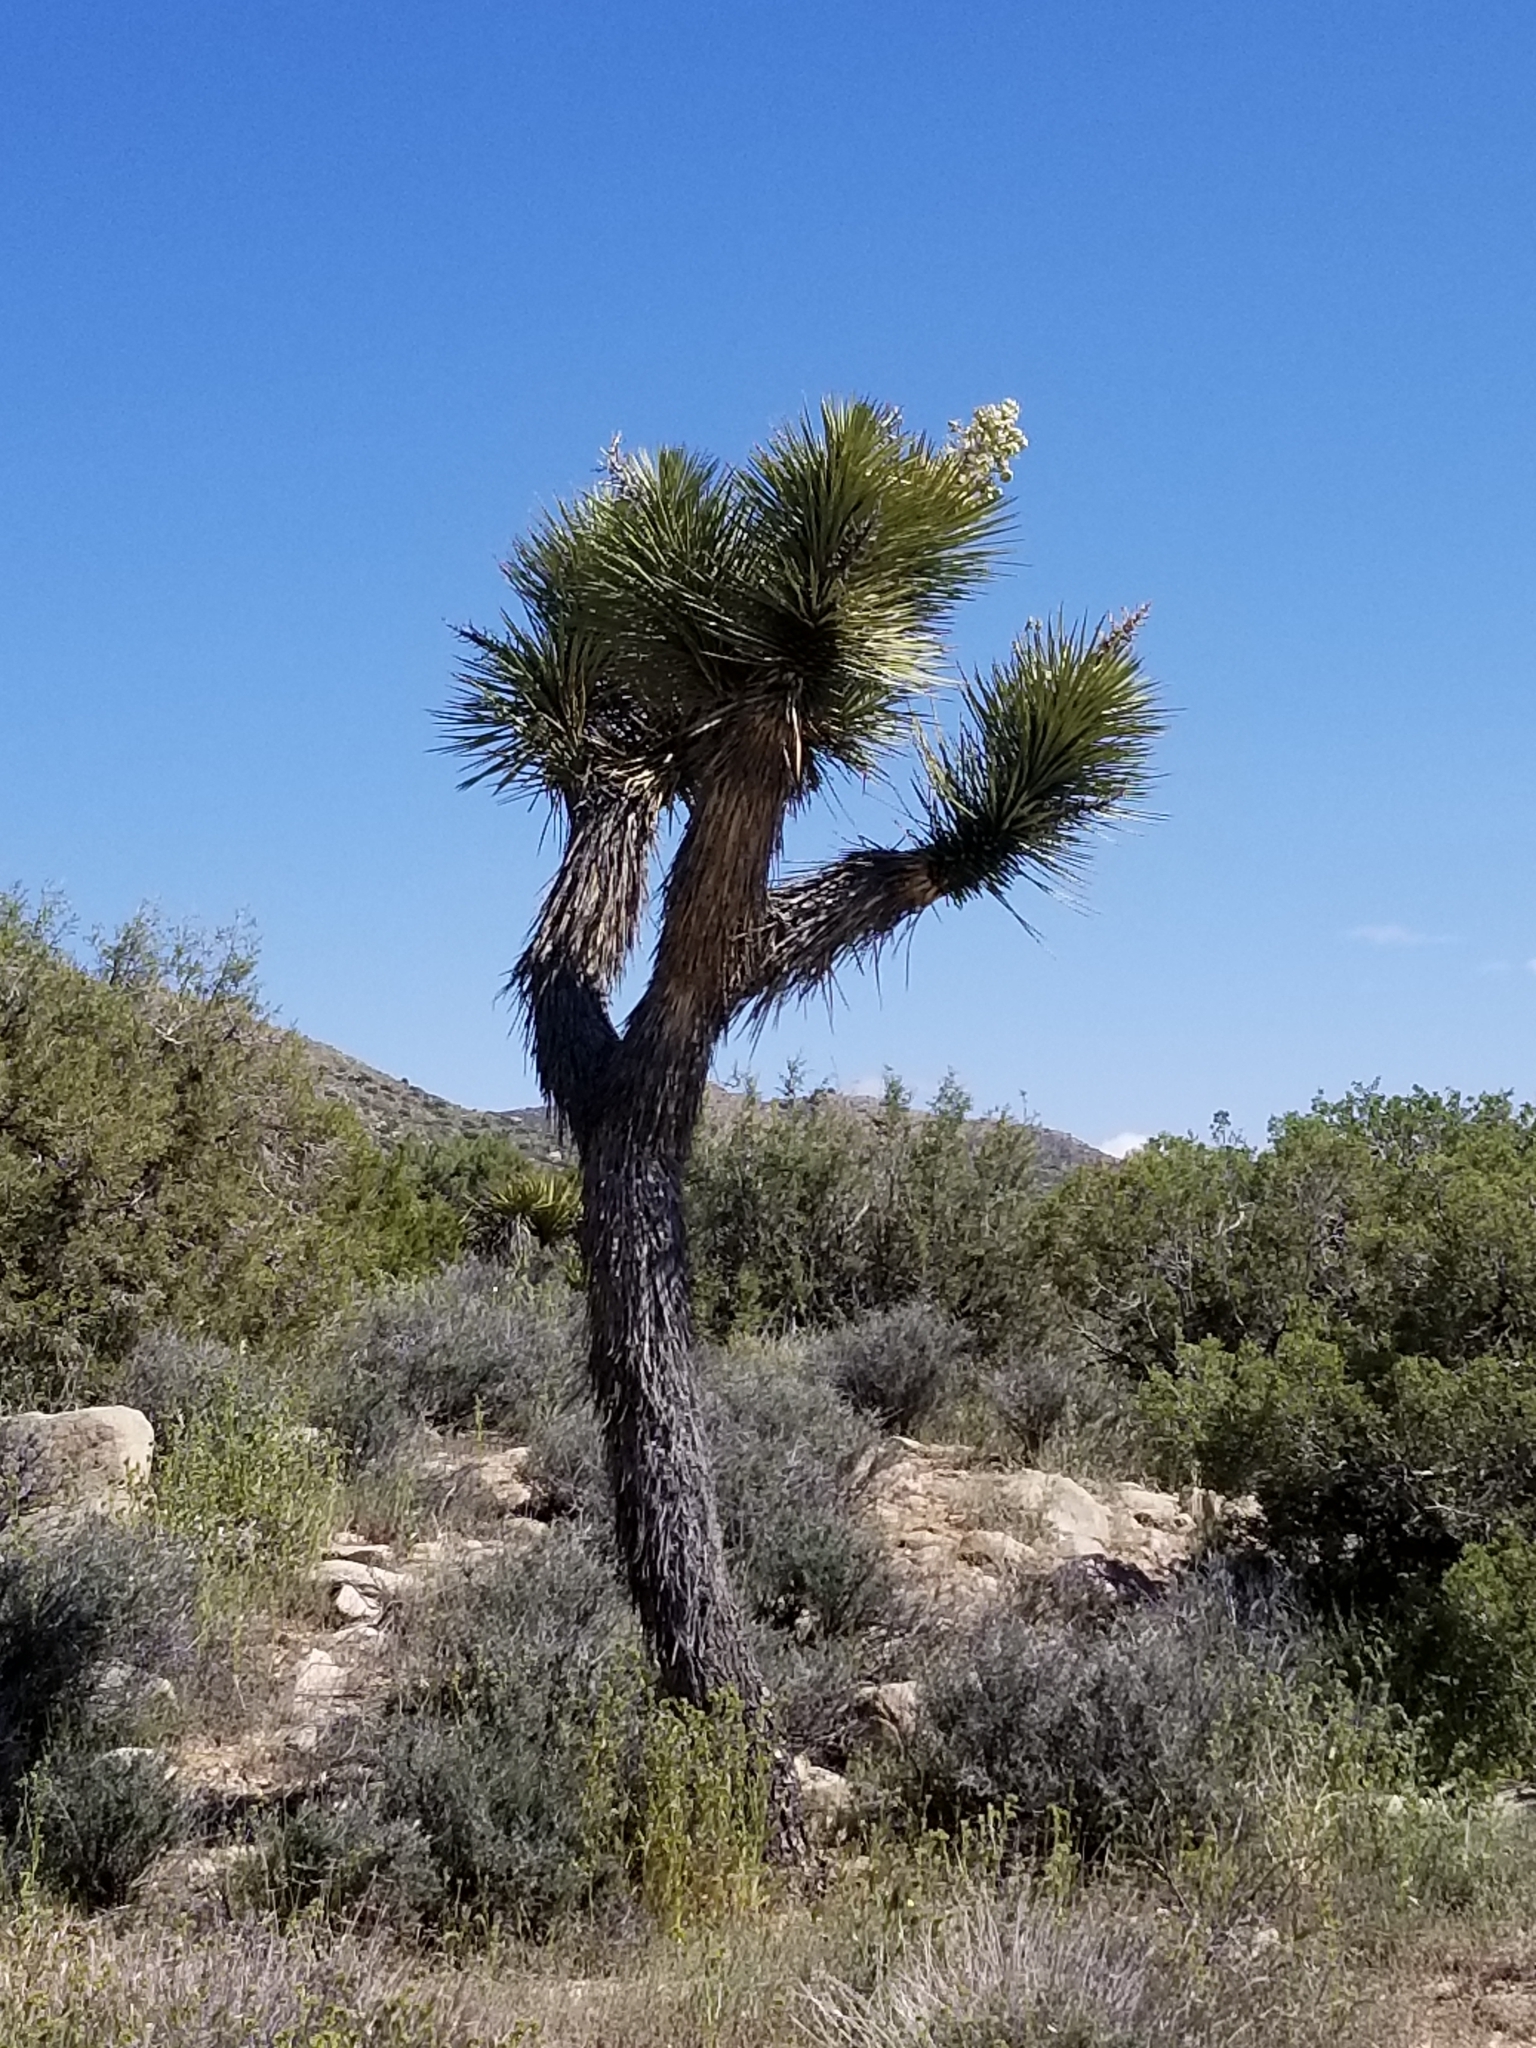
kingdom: Plantae
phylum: Tracheophyta
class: Liliopsida
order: Asparagales
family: Asparagaceae
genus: Yucca
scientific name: Yucca brevifolia
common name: Joshua tree
